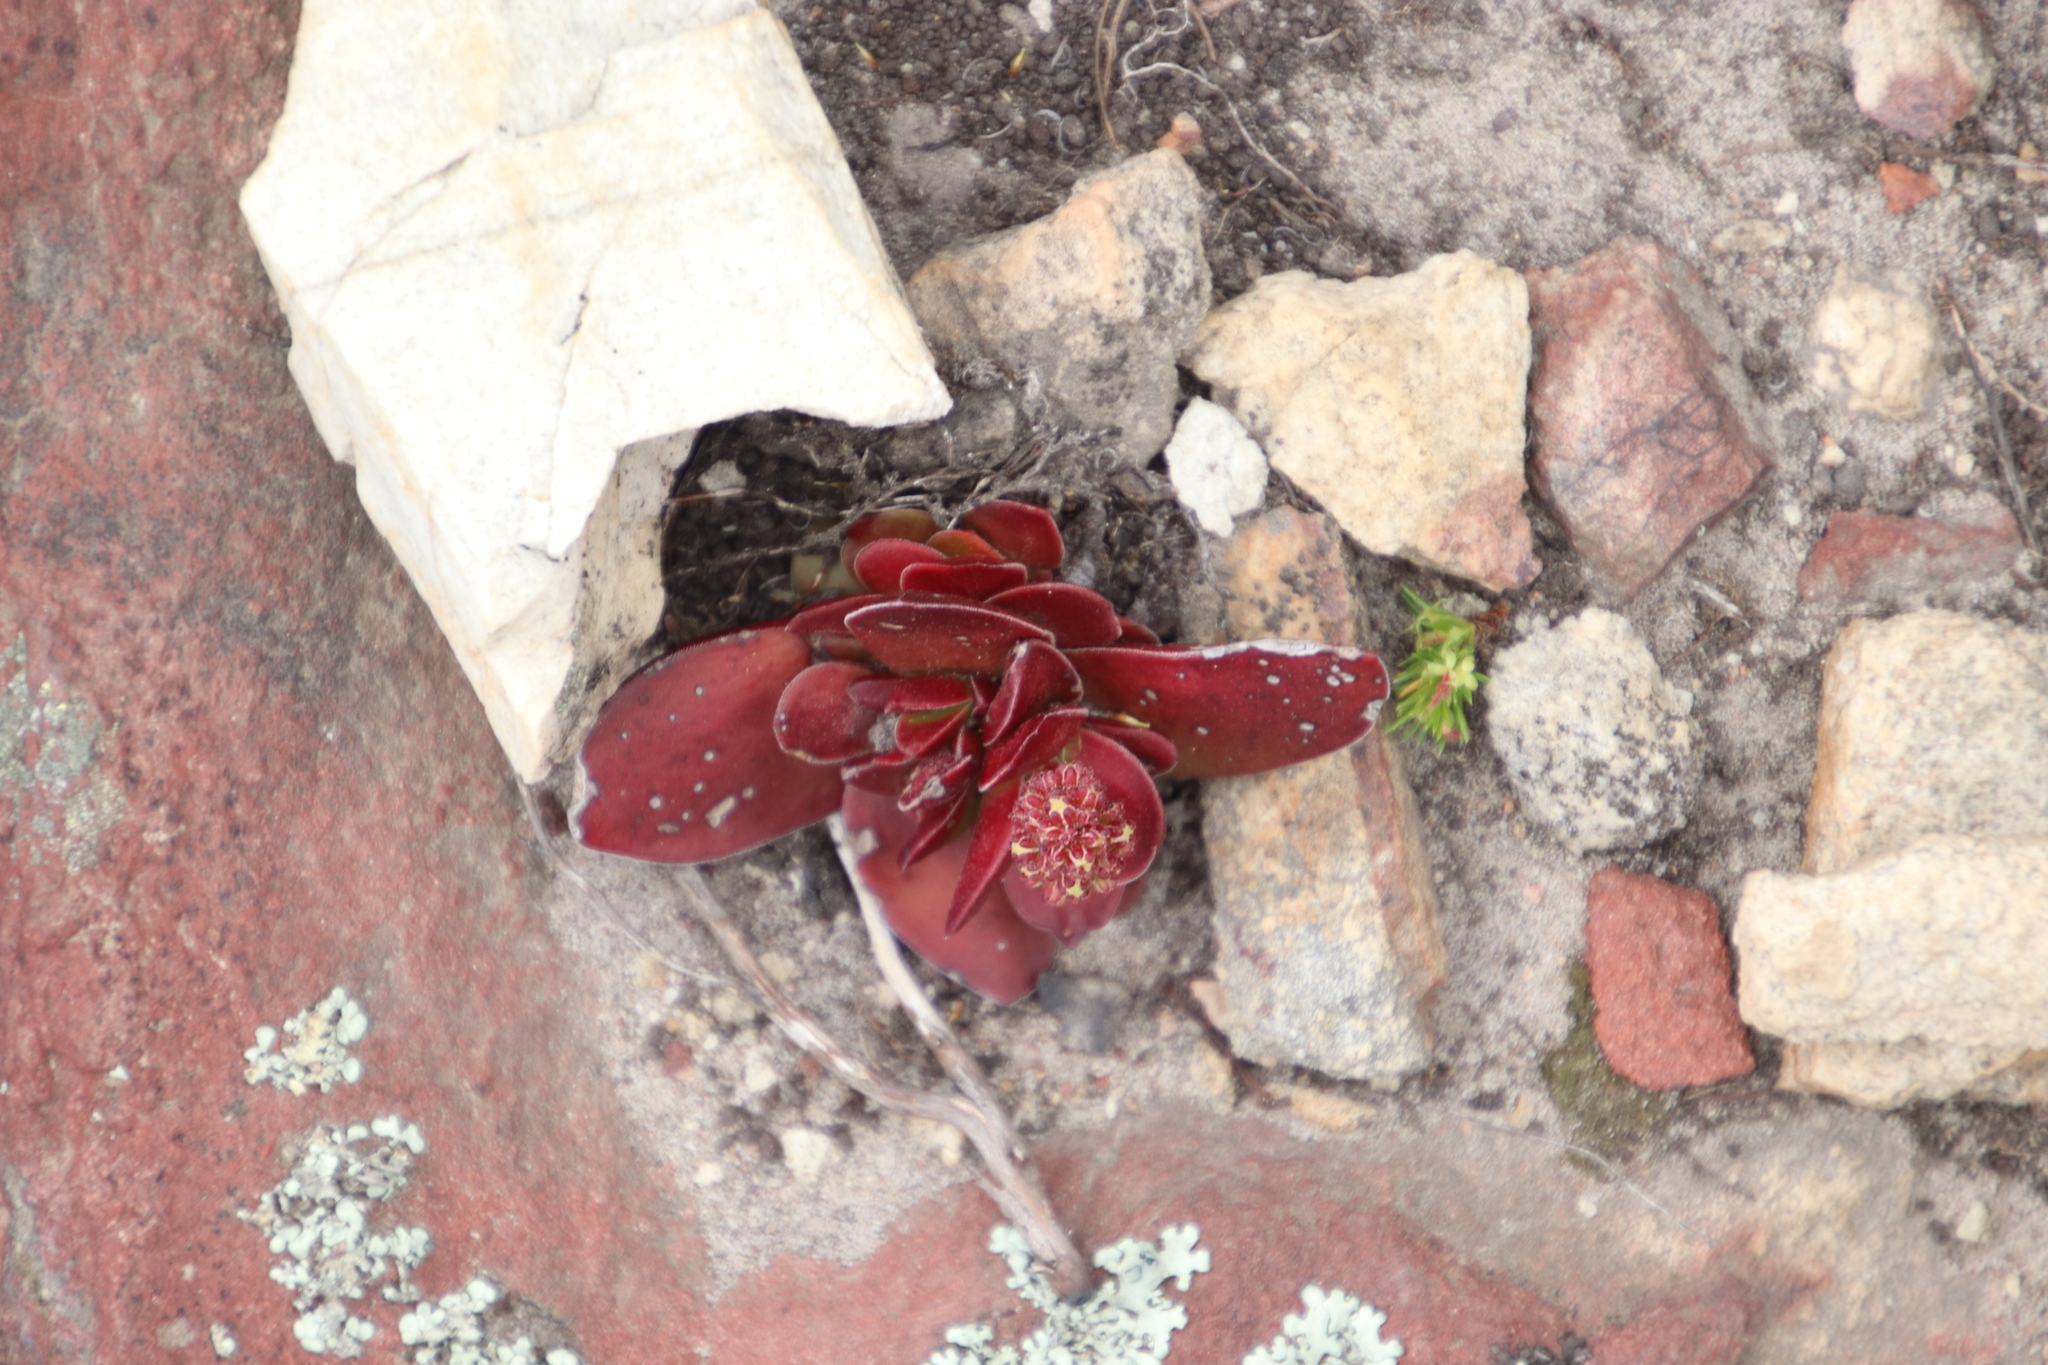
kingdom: Plantae
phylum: Tracheophyta
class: Magnoliopsida
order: Saxifragales
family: Crassulaceae
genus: Crassula
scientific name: Crassula nudicaulis
